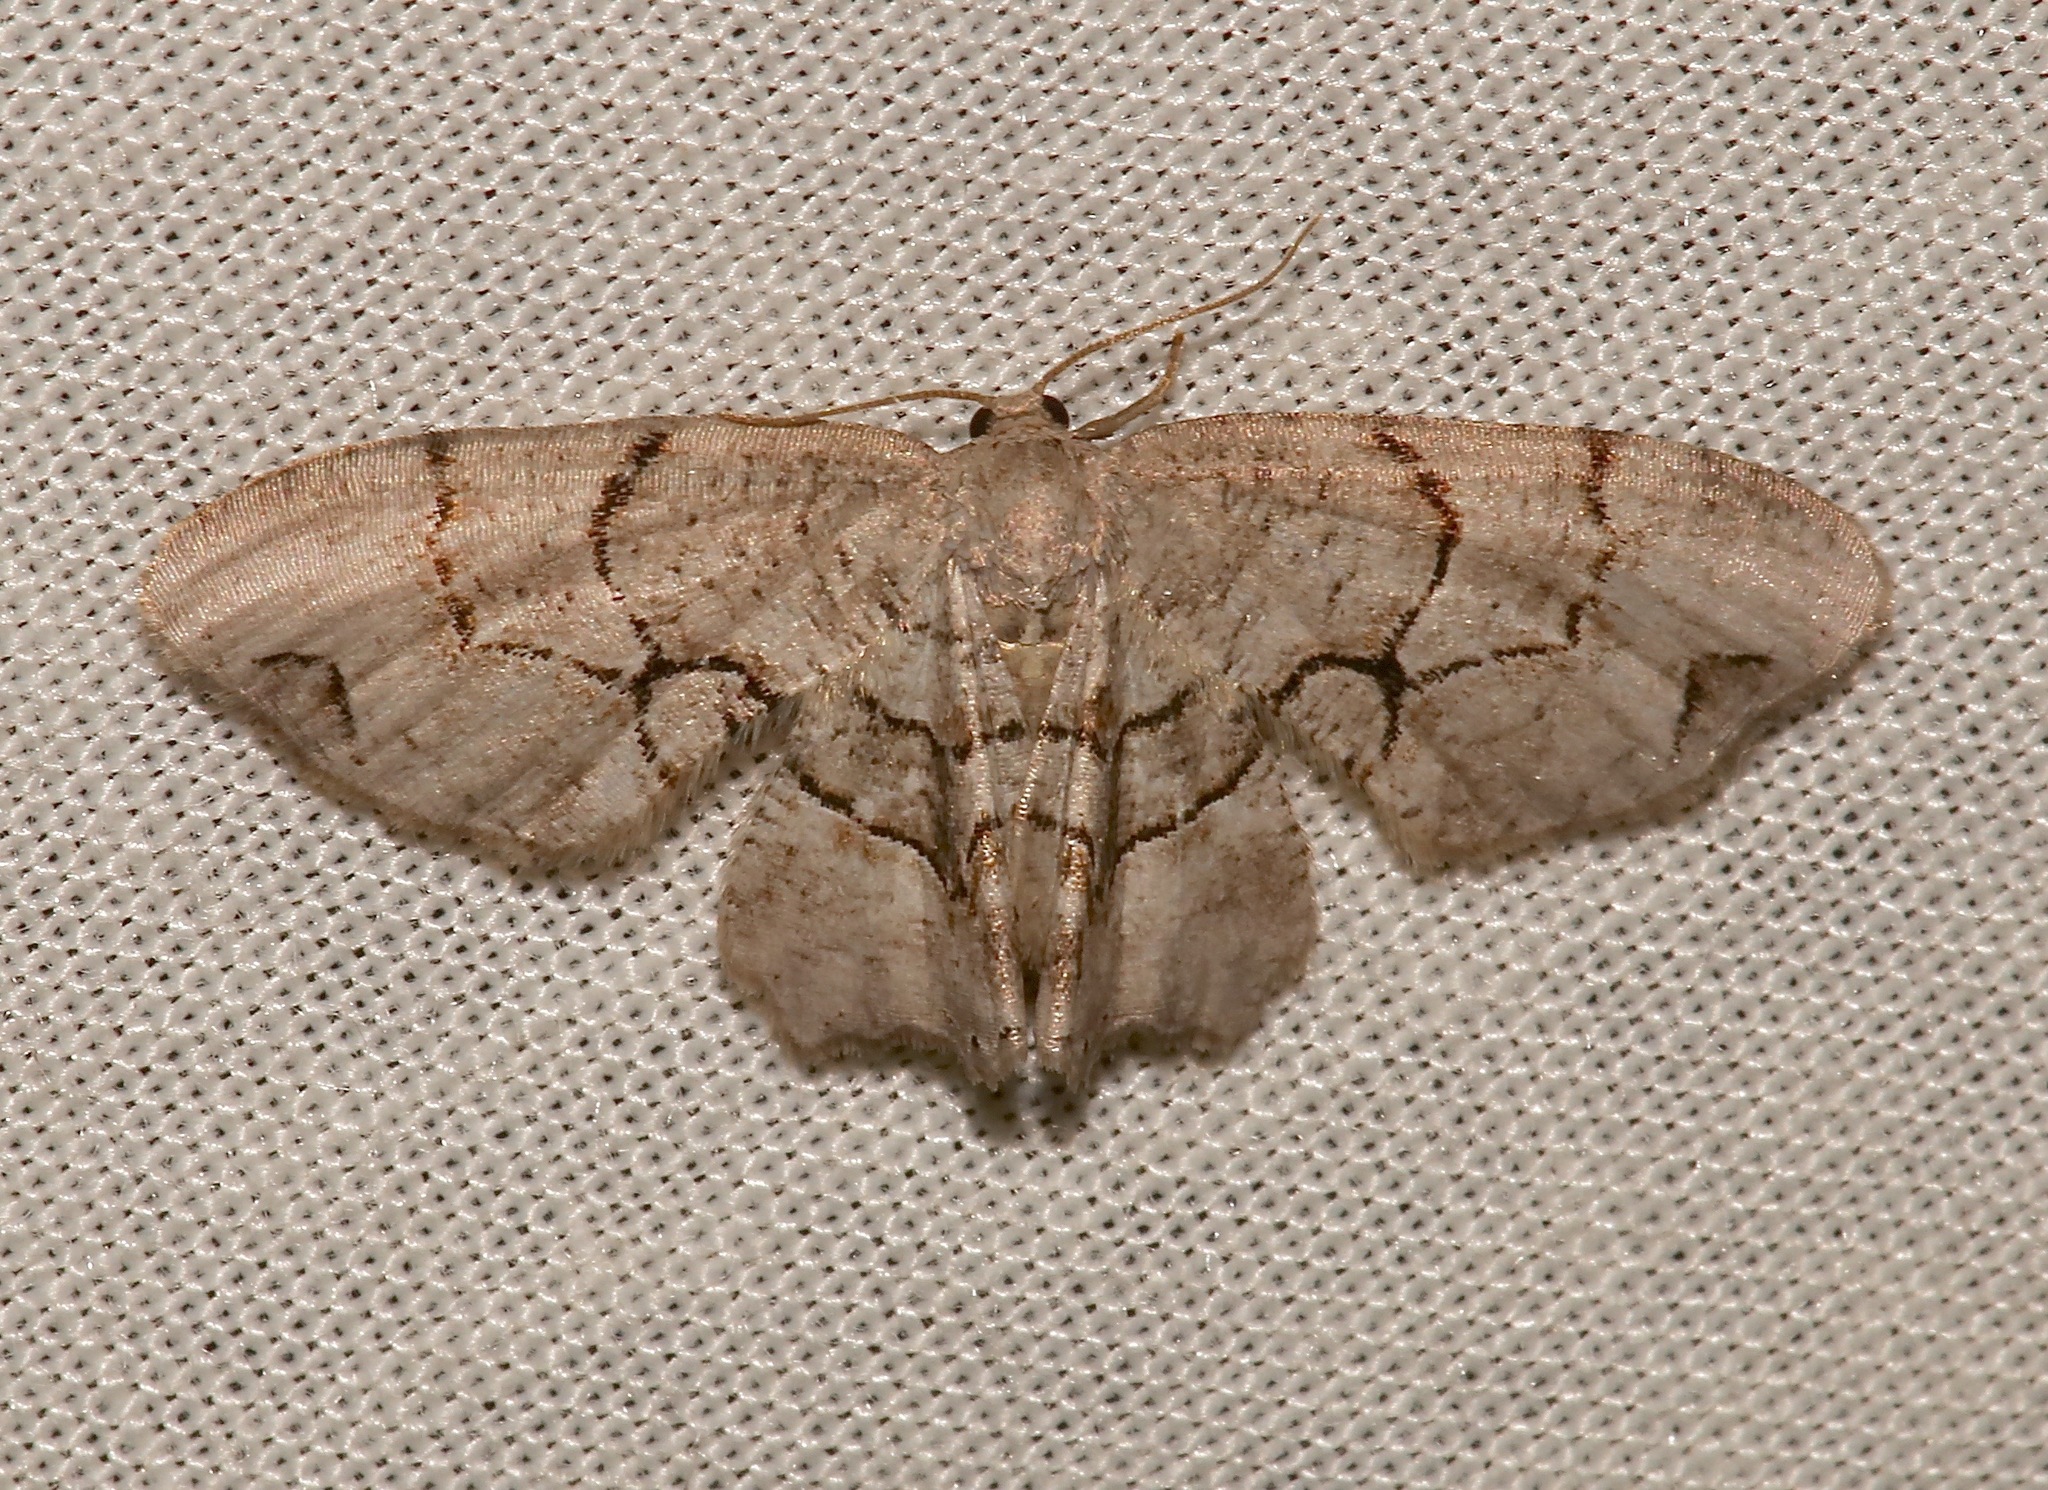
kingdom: Animalia
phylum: Arthropoda
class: Insecta
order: Lepidoptera
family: Uraniidae
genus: Epiplema
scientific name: Epiplema Callizzia amorata
